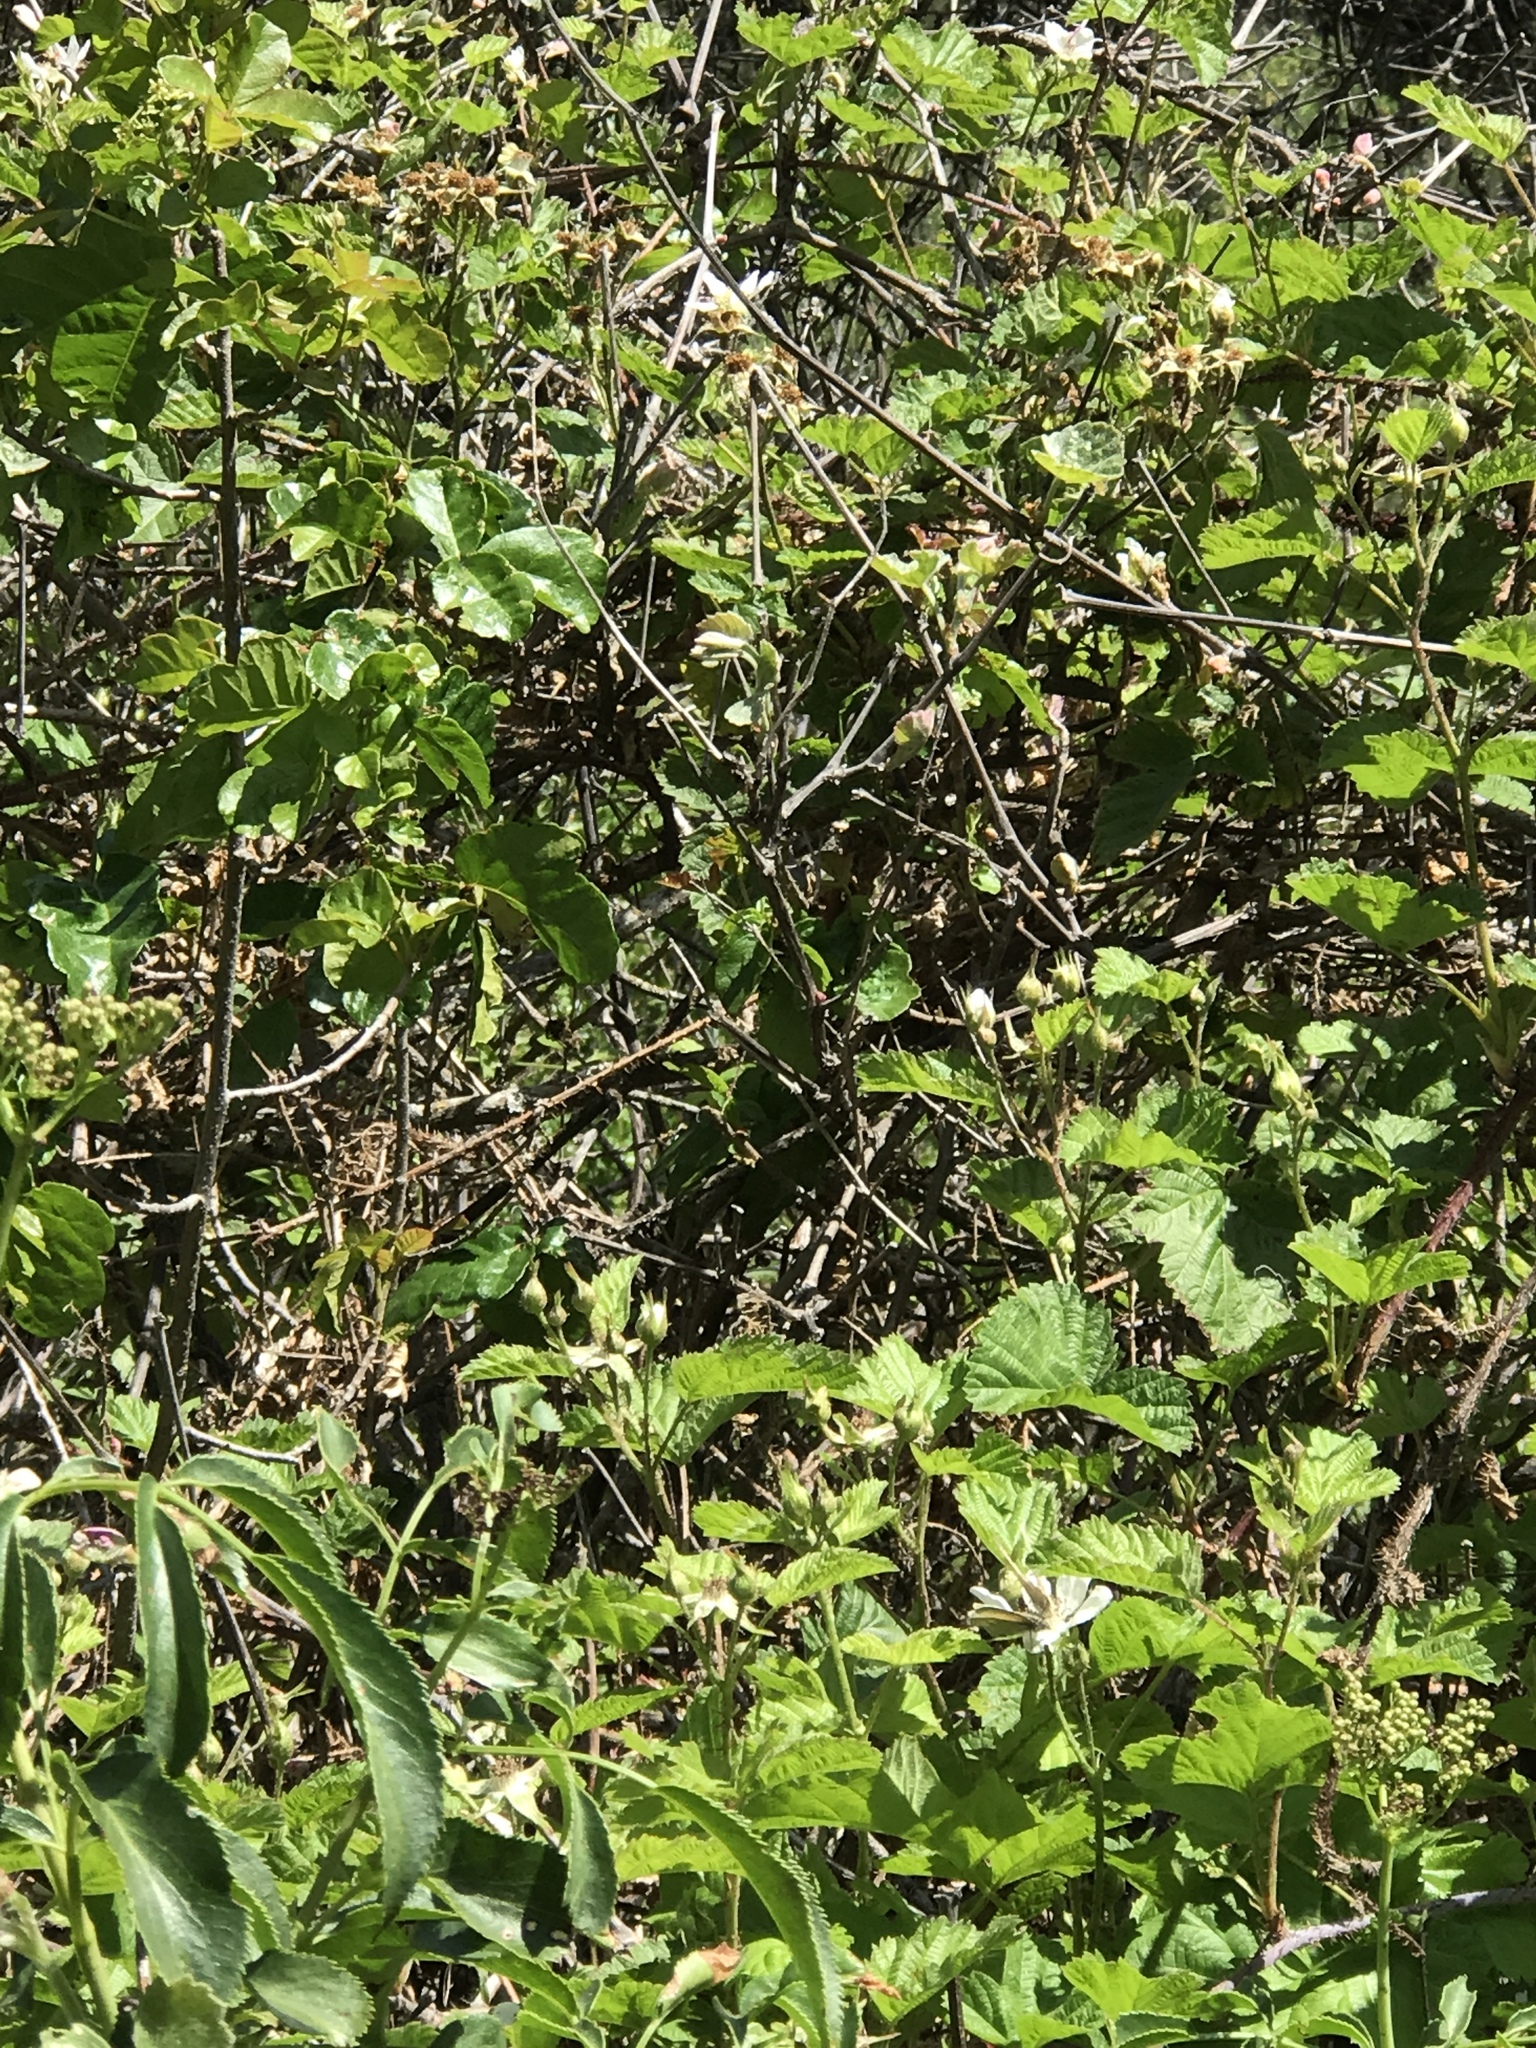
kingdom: Animalia
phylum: Arthropoda
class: Insecta
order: Lepidoptera
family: Nymphalidae
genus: Coenonympha
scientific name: Coenonympha california
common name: Common ringlet
